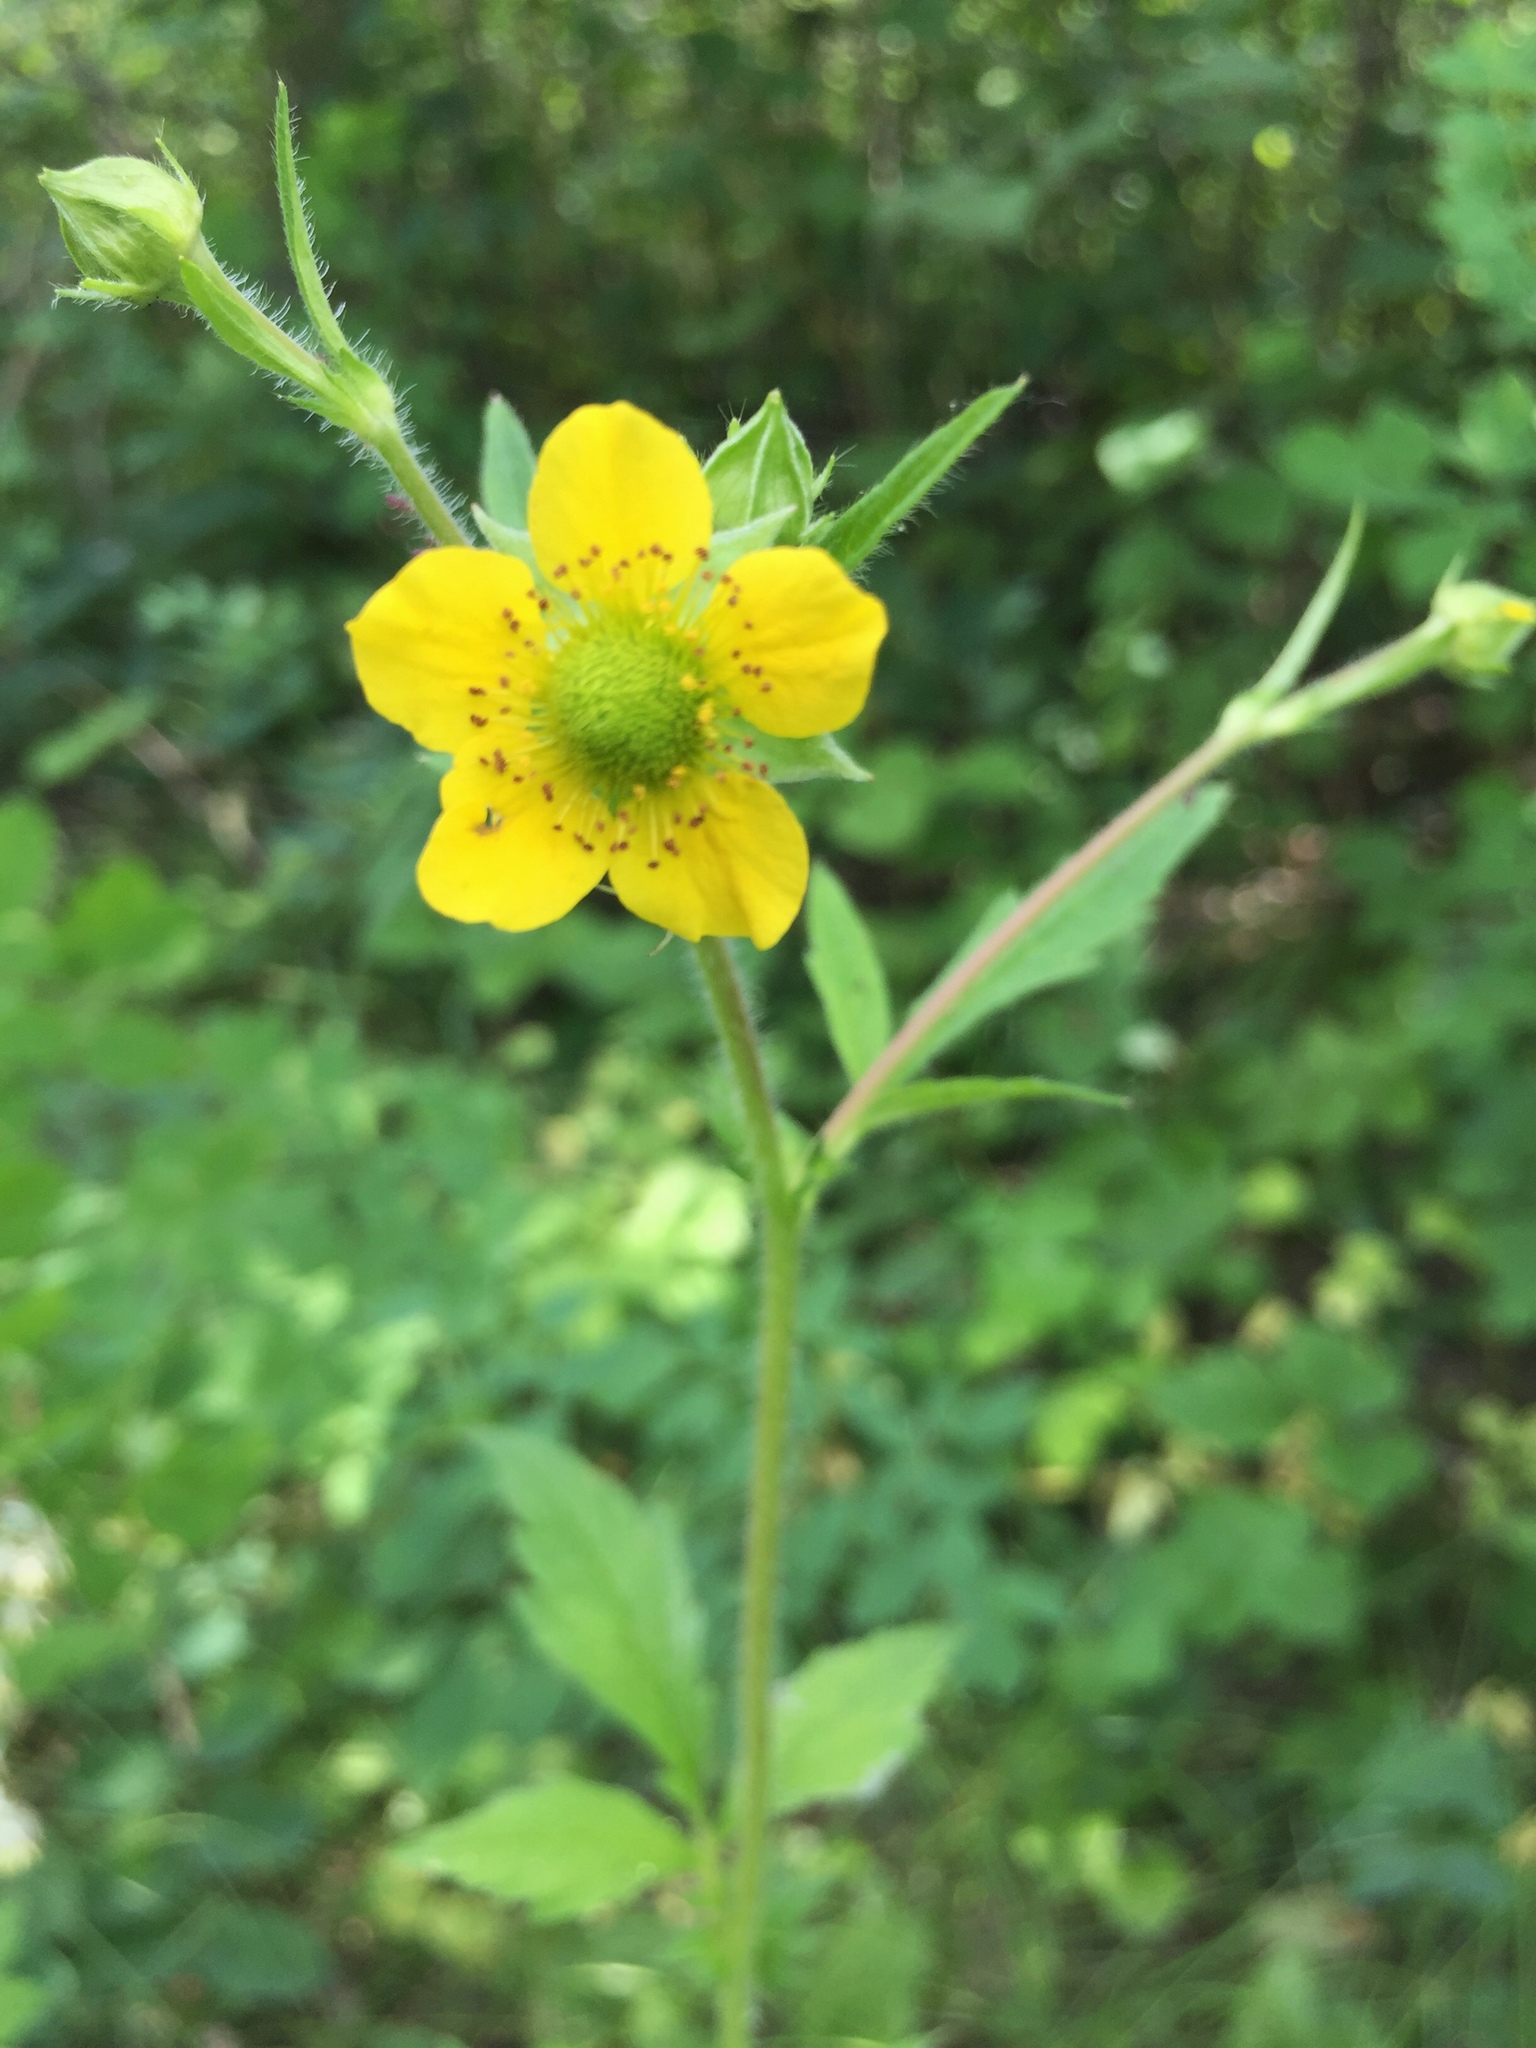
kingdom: Plantae
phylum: Tracheophyta
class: Magnoliopsida
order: Rosales
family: Rosaceae
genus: Geum
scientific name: Geum aleppicum
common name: Yellow avens
